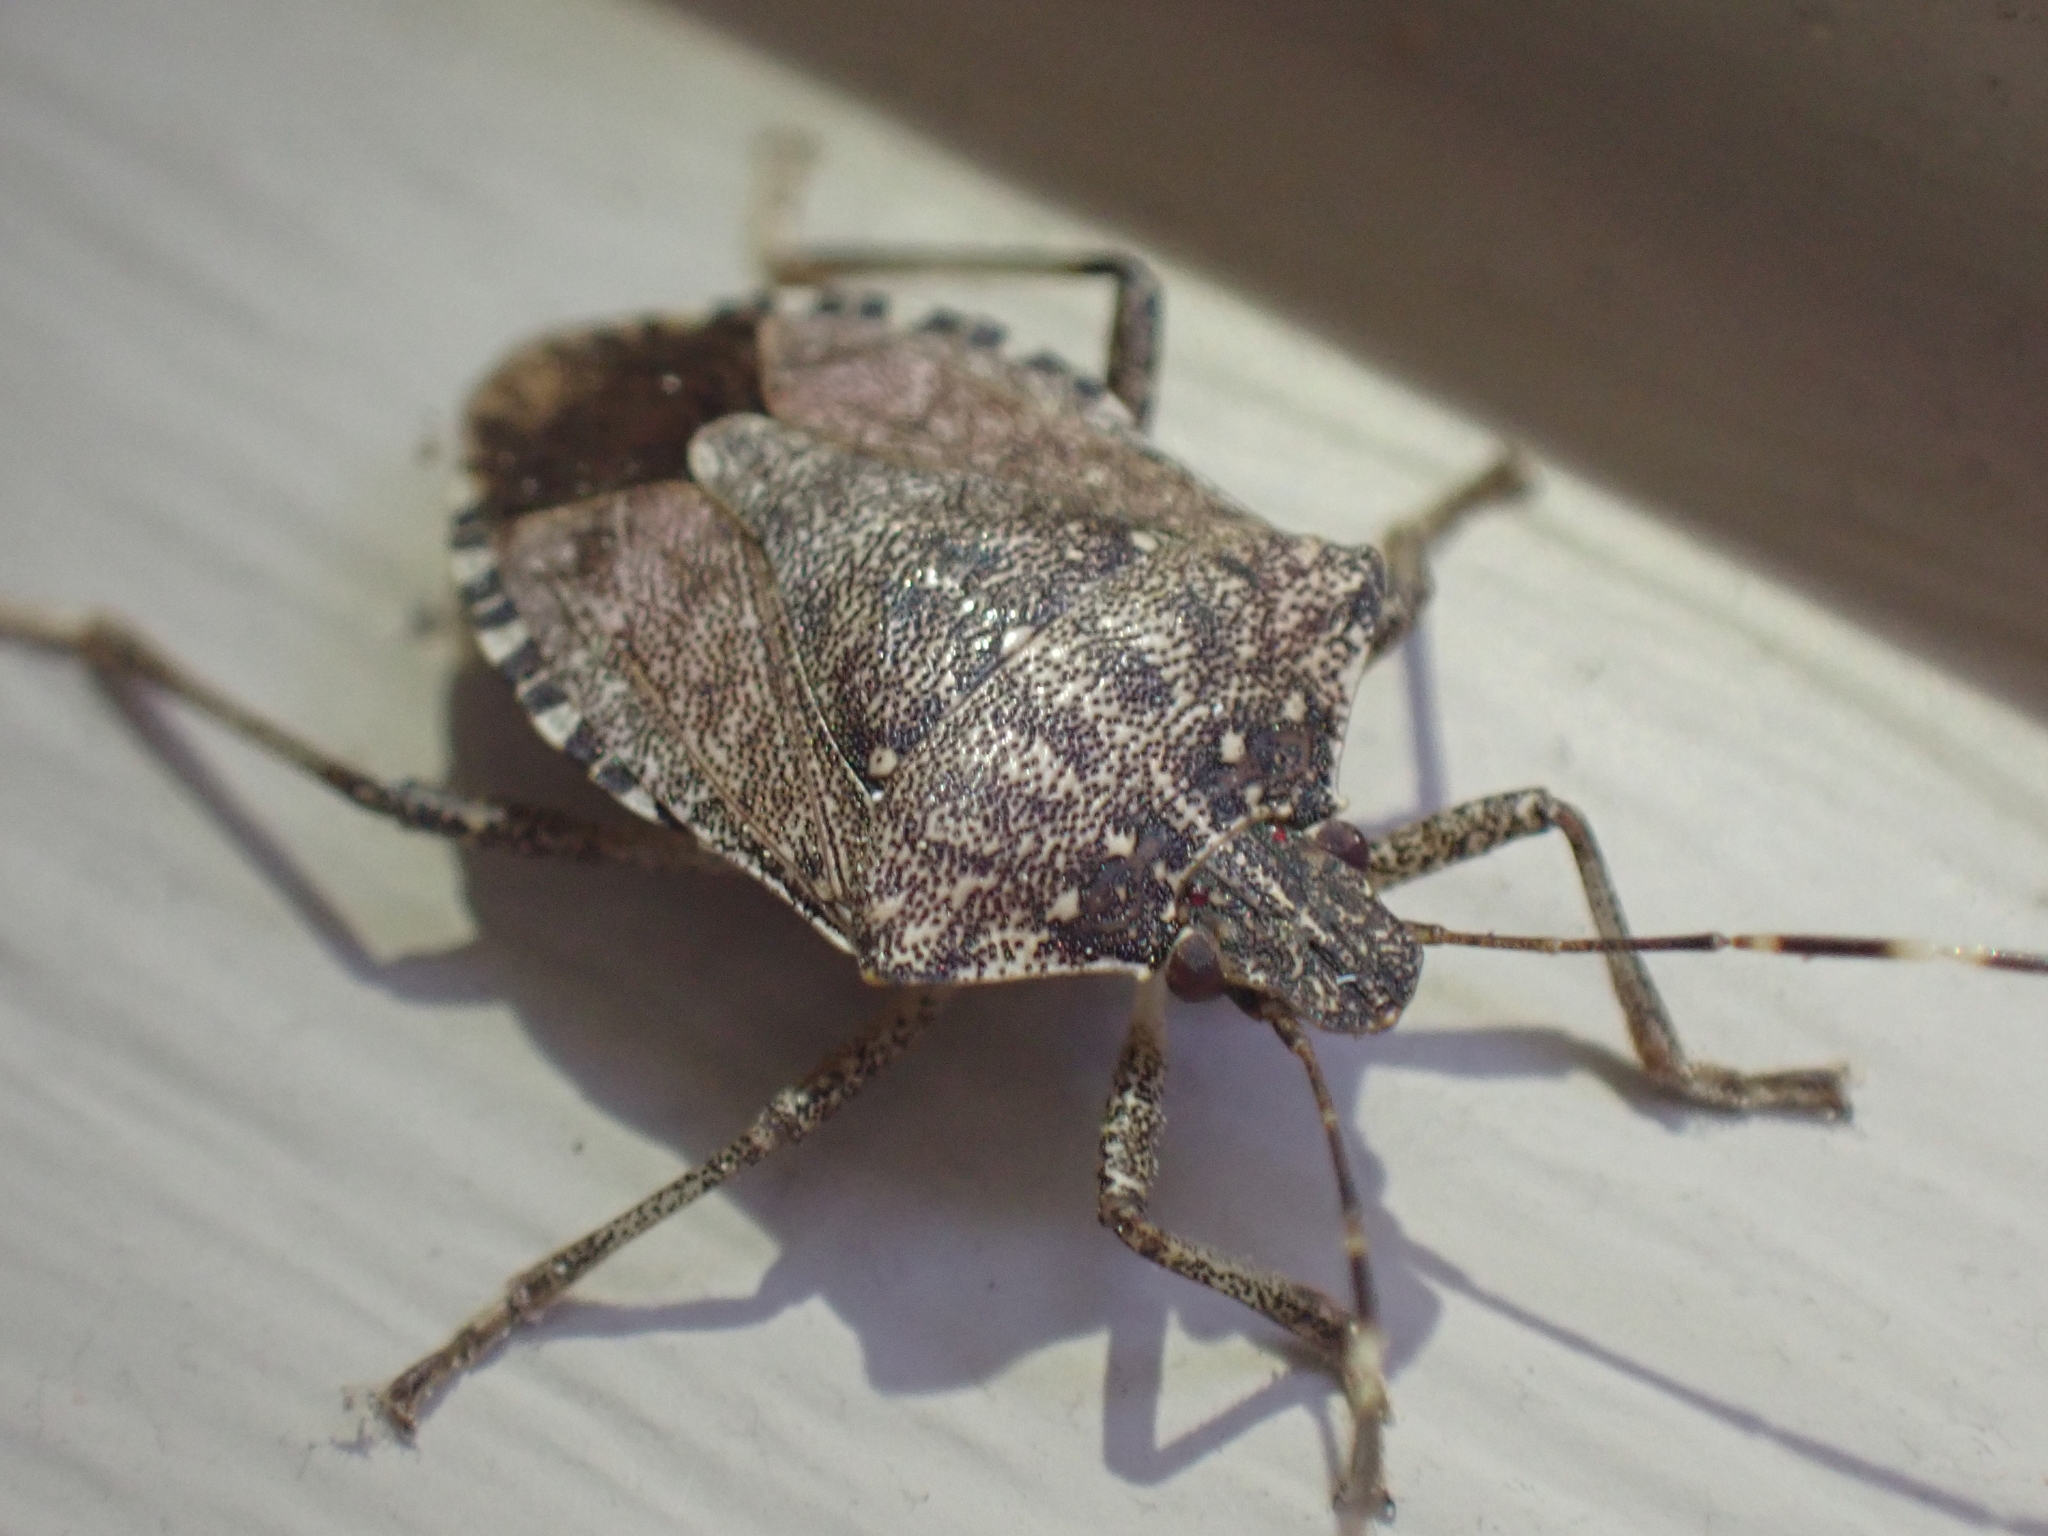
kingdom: Animalia
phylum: Arthropoda
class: Insecta
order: Hemiptera
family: Pentatomidae
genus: Halyomorpha
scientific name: Halyomorpha halys
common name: Brown marmorated stink bug
